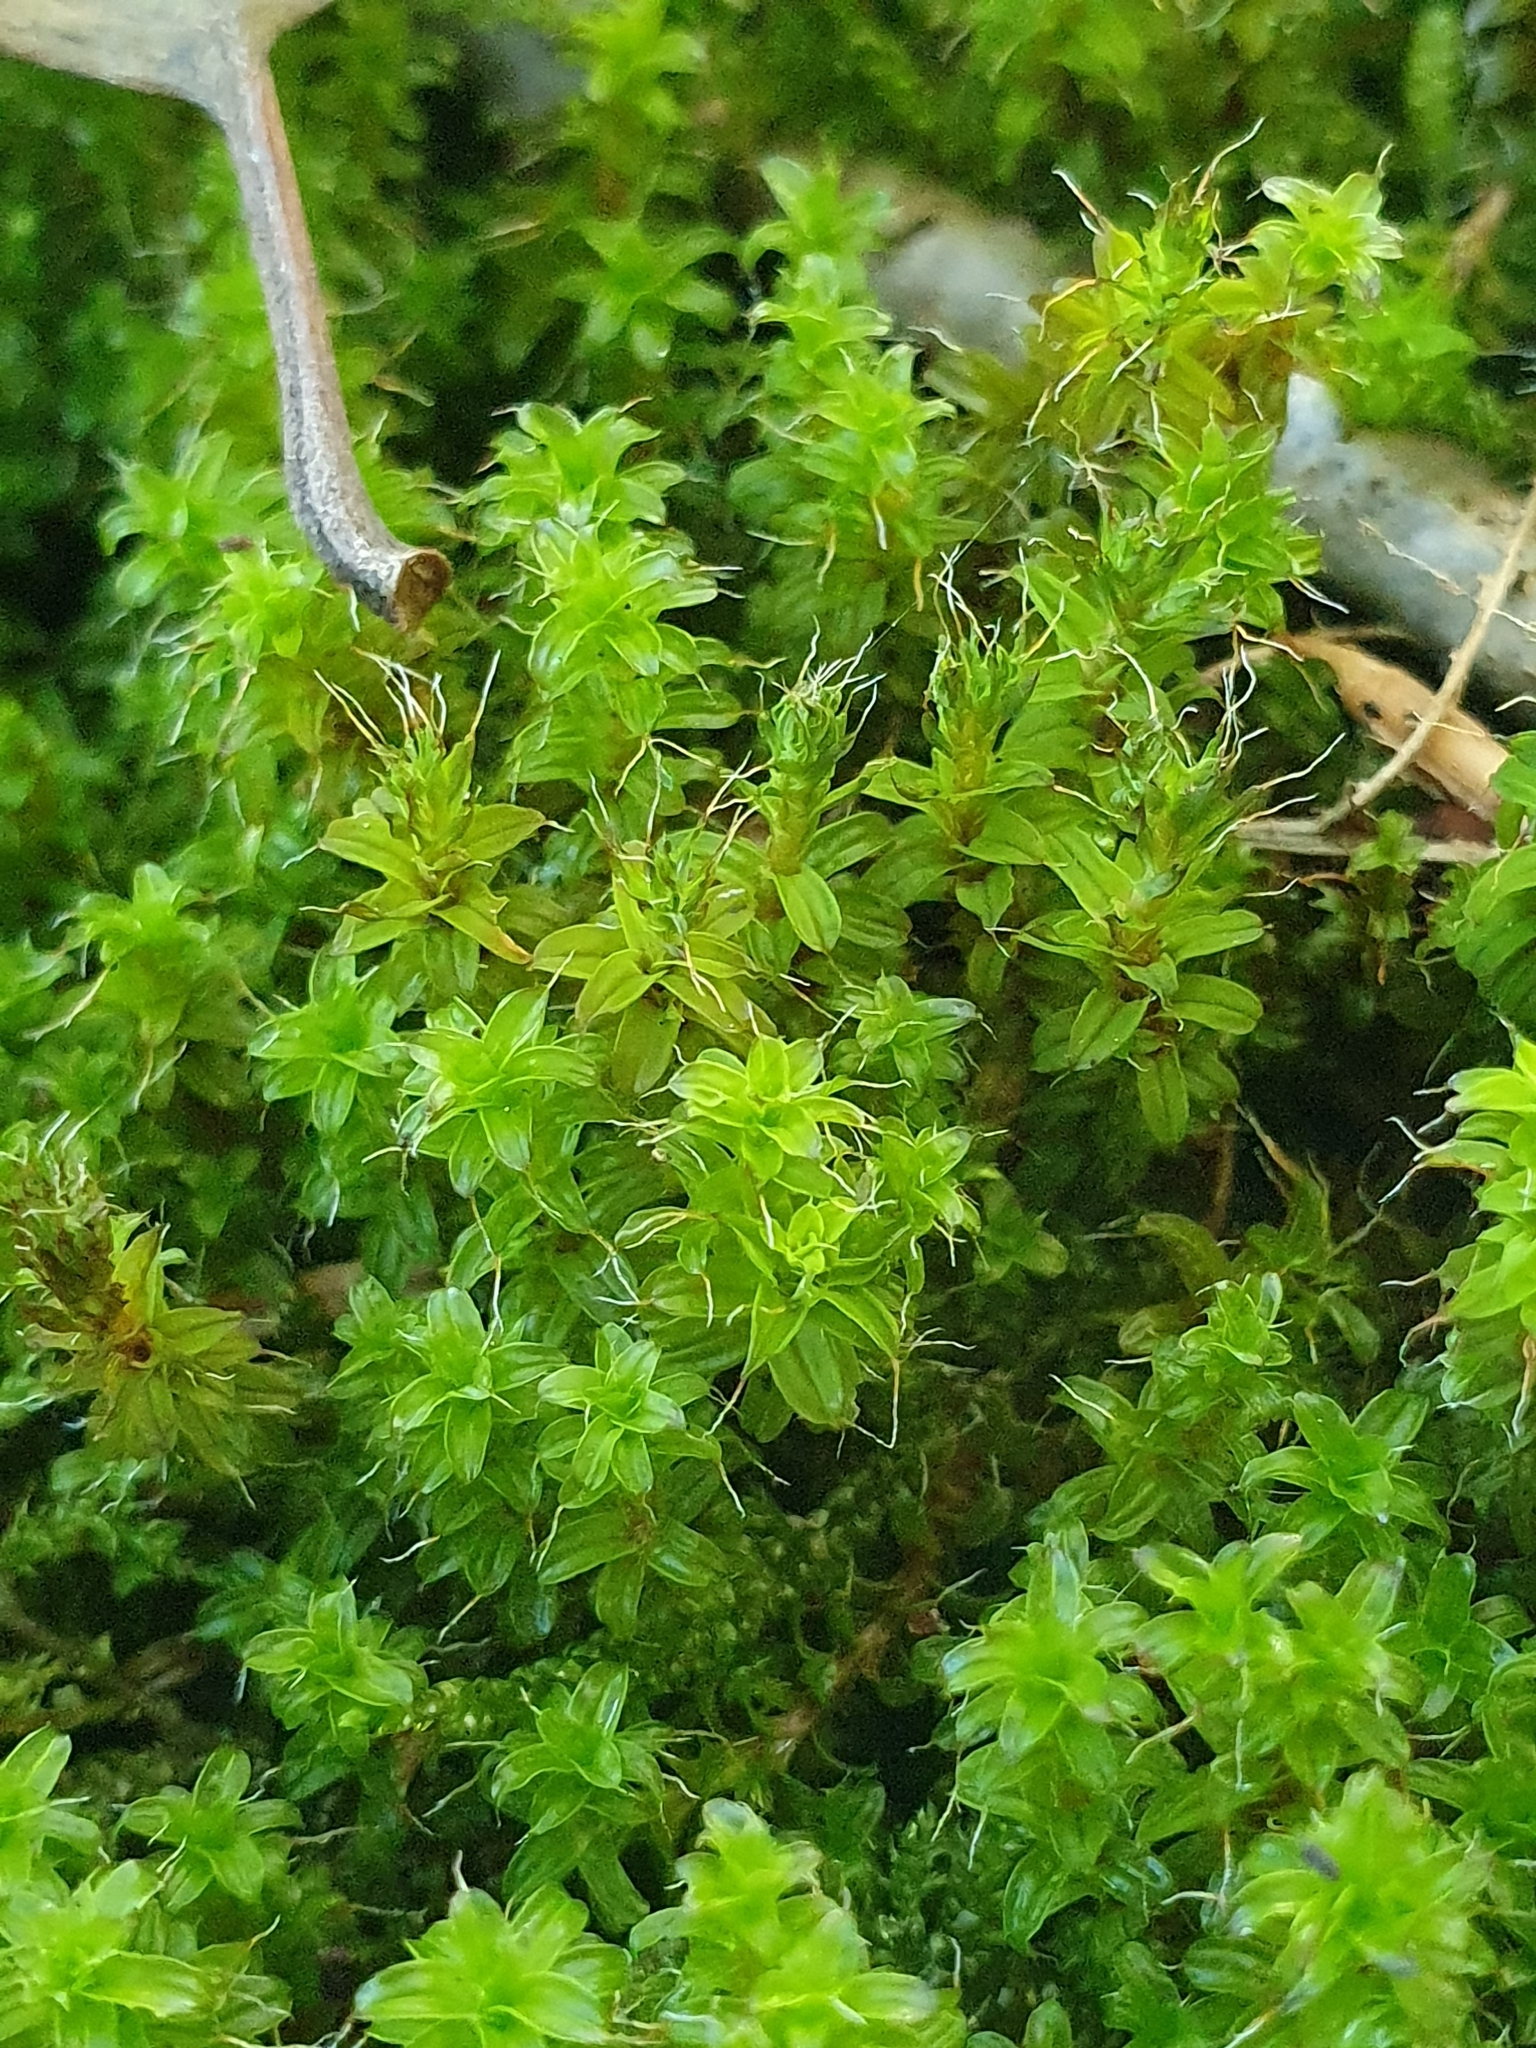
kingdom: Plantae
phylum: Bryophyta
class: Bryopsida
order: Pottiales
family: Pottiaceae
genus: Syntrichia
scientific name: Syntrichia ruralis
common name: Sidewalk screw moss
